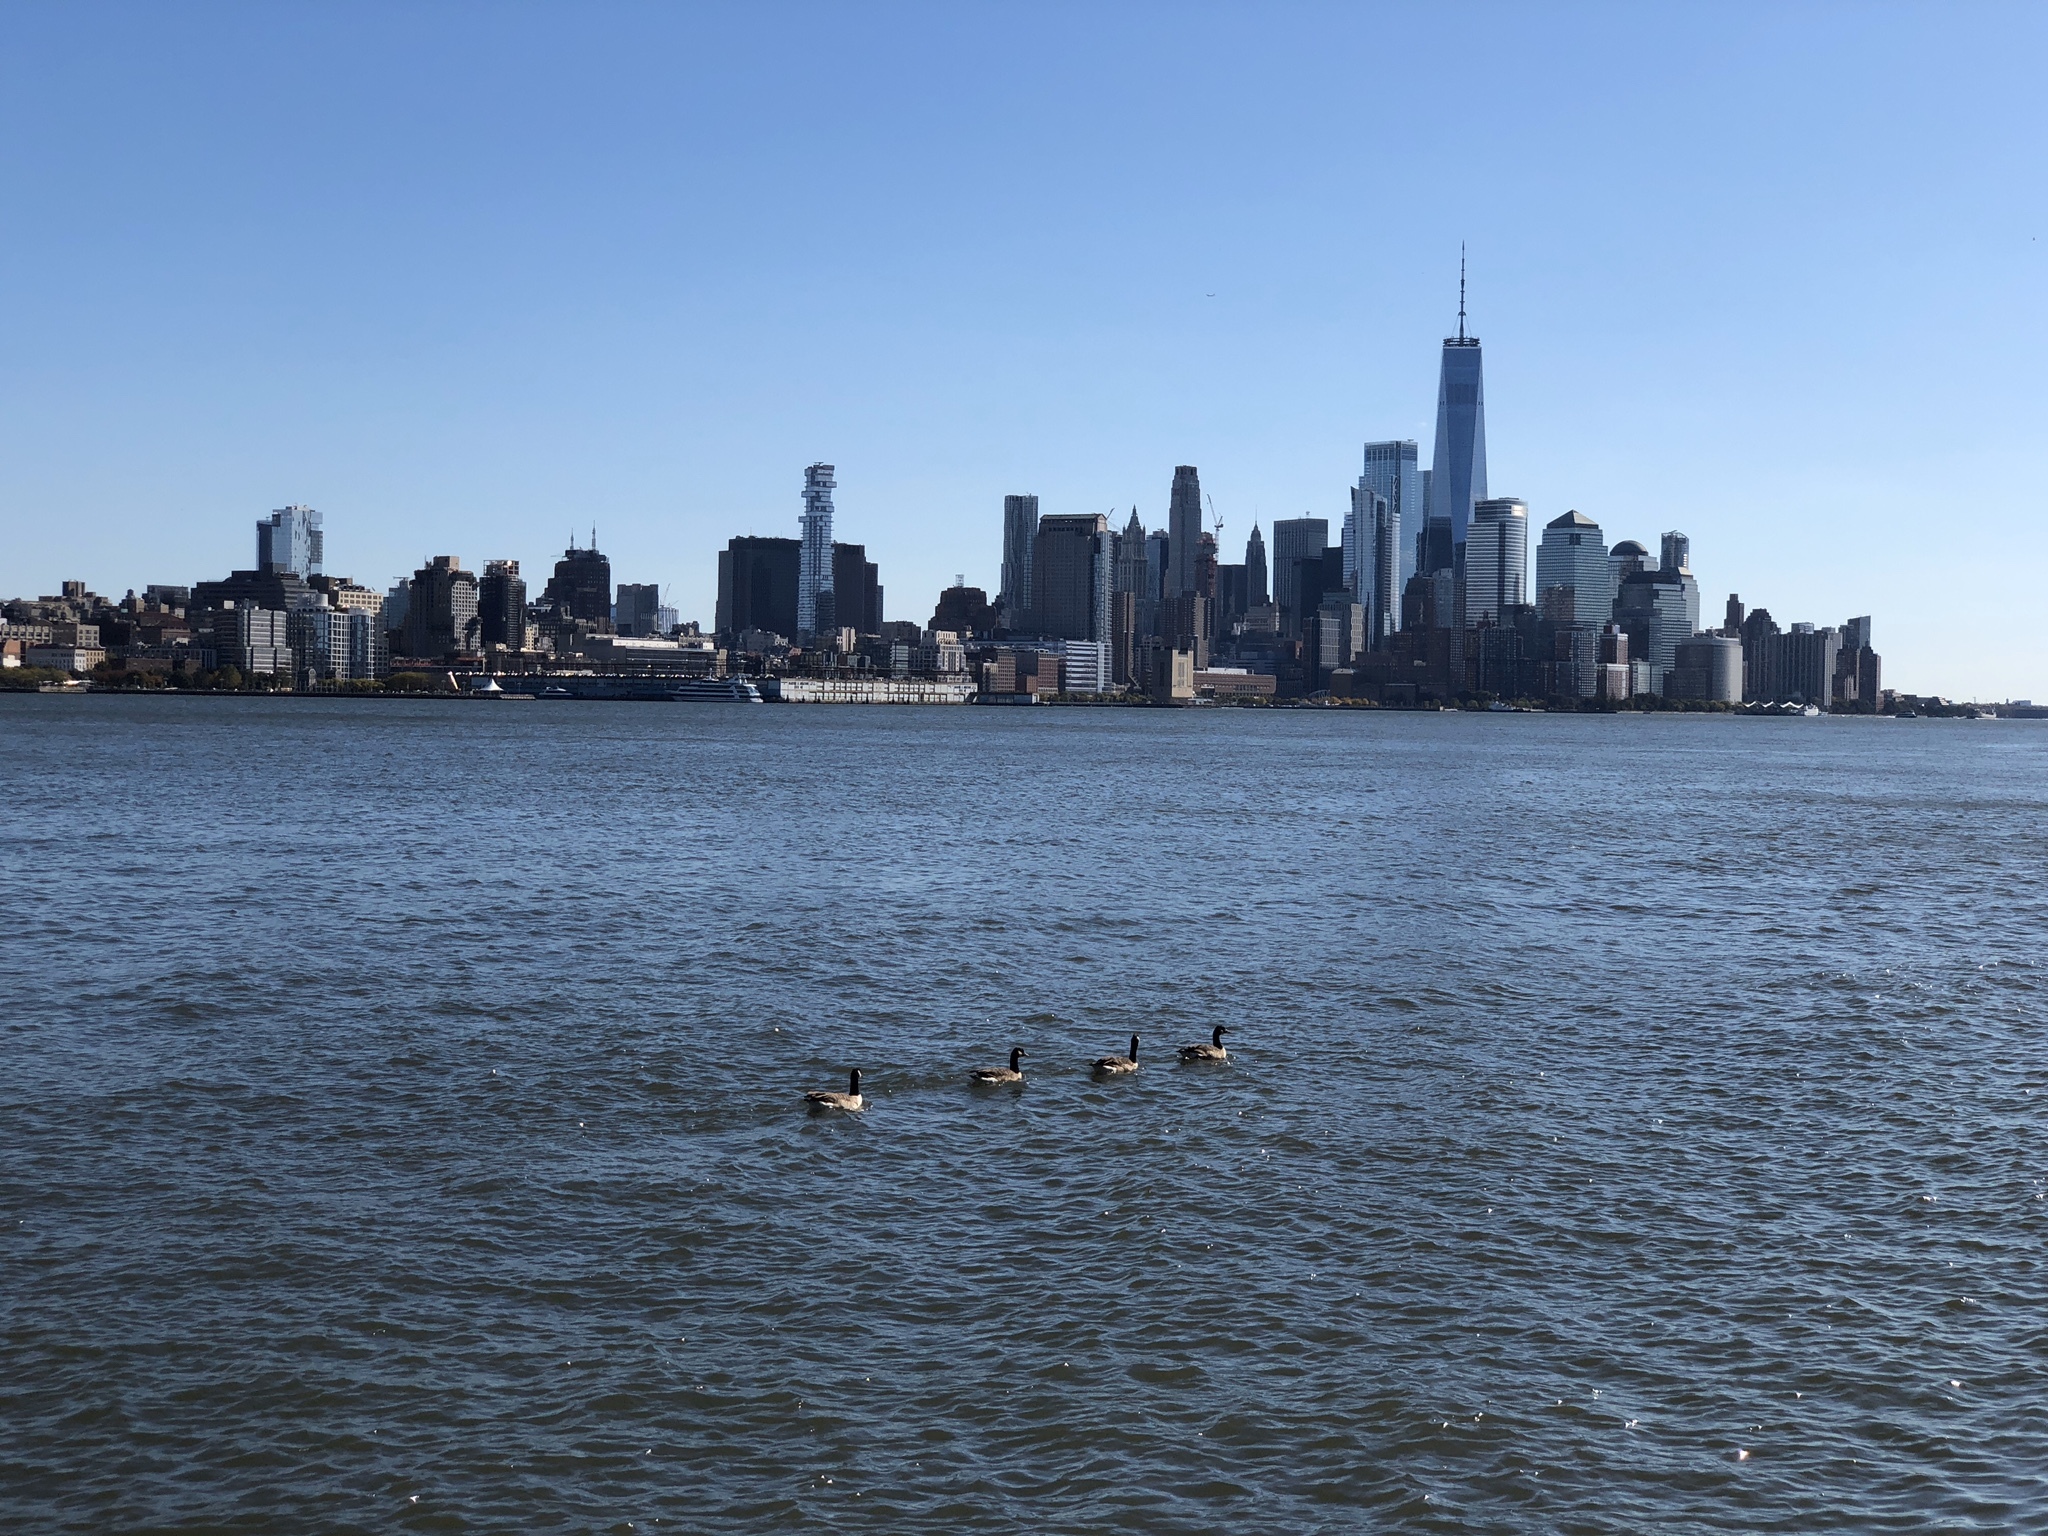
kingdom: Animalia
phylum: Chordata
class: Aves
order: Anseriformes
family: Anatidae
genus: Branta
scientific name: Branta canadensis
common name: Canada goose
